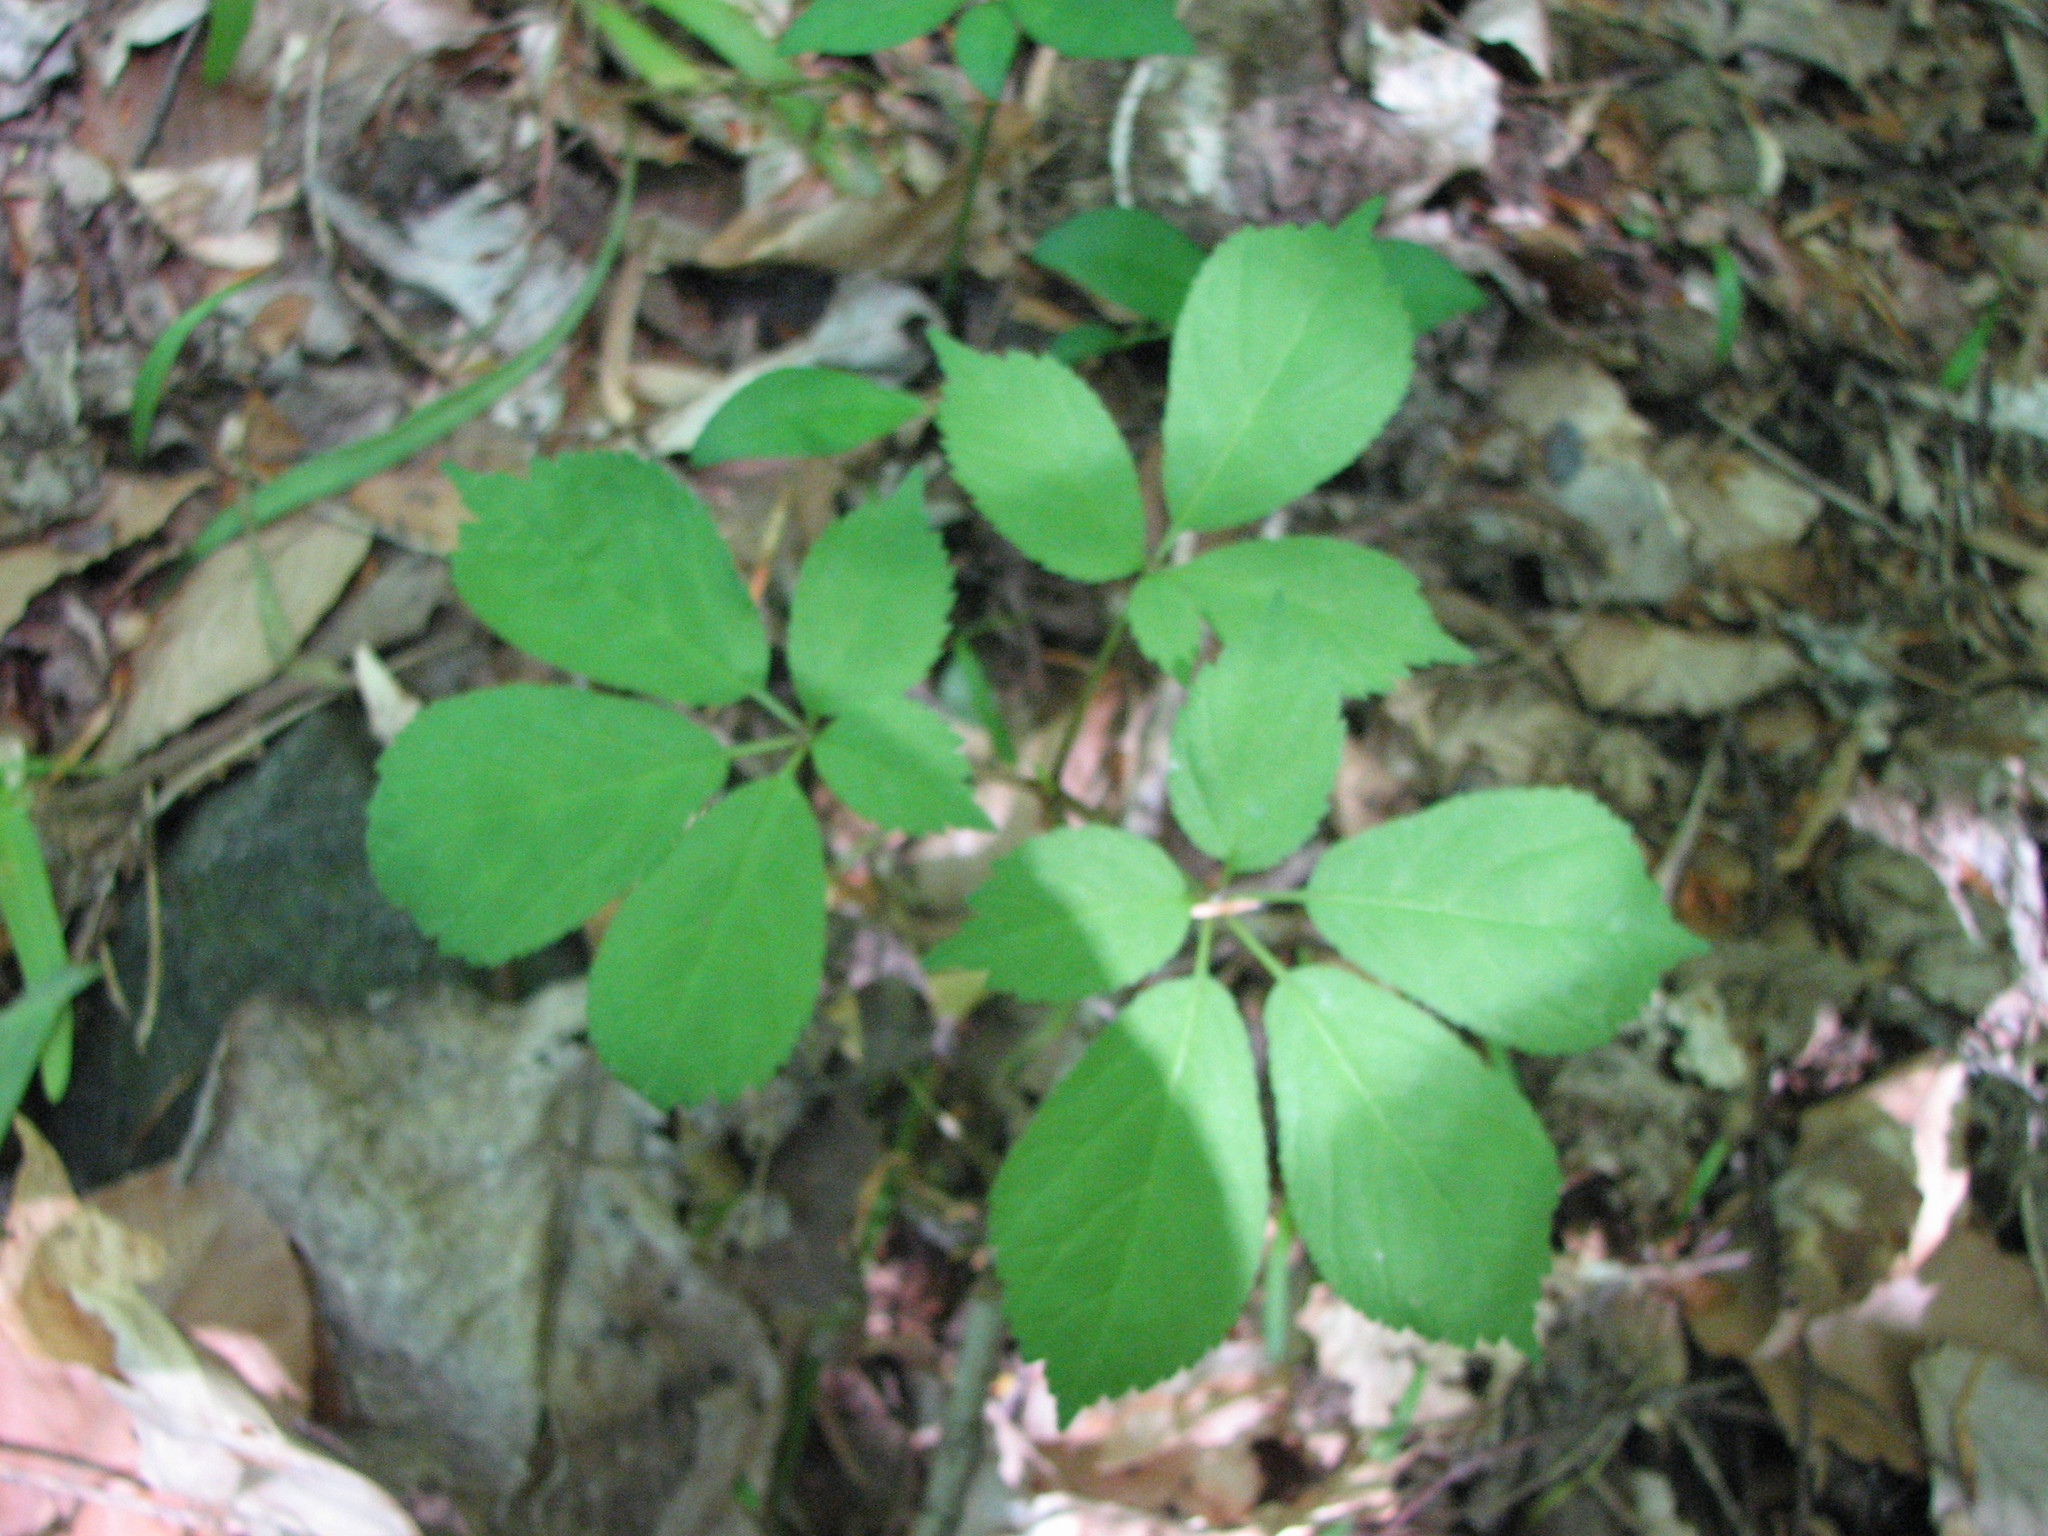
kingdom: Plantae
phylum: Tracheophyta
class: Magnoliopsida
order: Apiales
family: Araliaceae
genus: Panax
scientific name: Panax quinquefolius
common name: American ginseng
